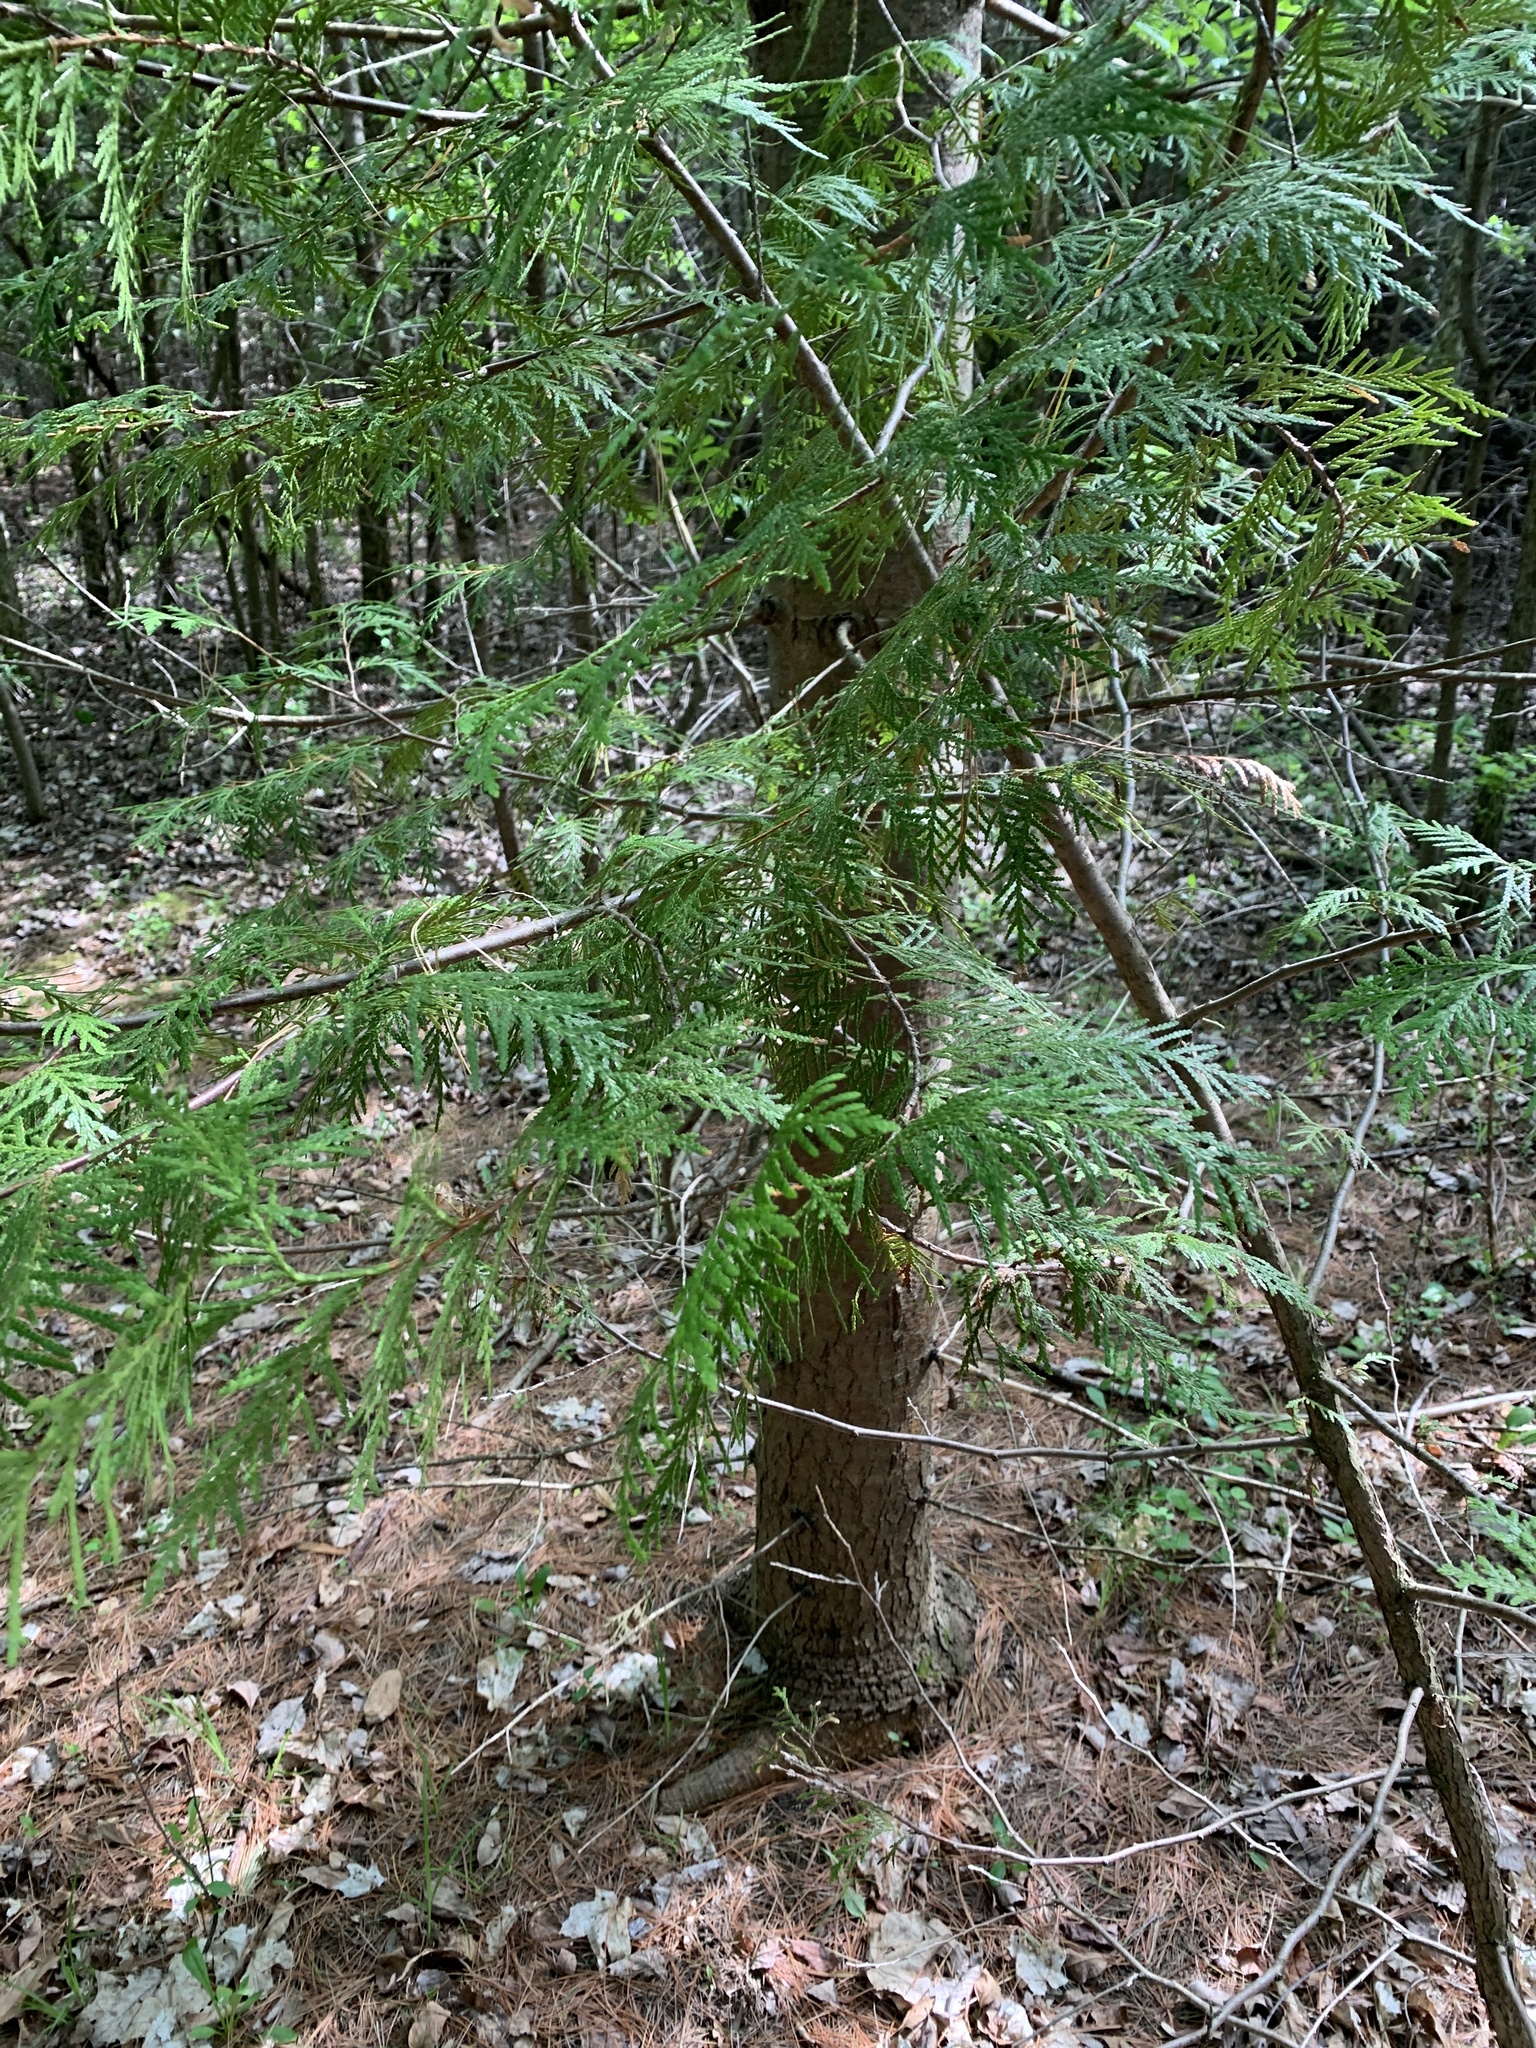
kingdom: Plantae
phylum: Tracheophyta
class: Pinopsida
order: Pinales
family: Cupressaceae
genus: Thuja
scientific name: Thuja occidentalis
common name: Northern white-cedar
